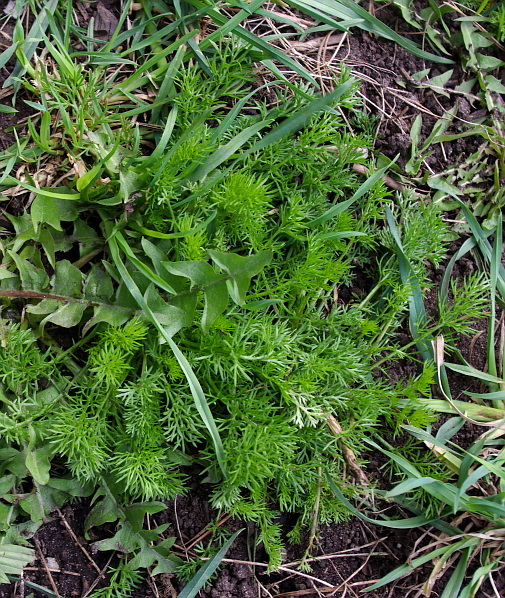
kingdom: Plantae
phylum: Tracheophyta
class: Magnoliopsida
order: Asterales
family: Asteraceae
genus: Tripleurospermum
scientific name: Tripleurospermum inodorum
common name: Scentless mayweed
